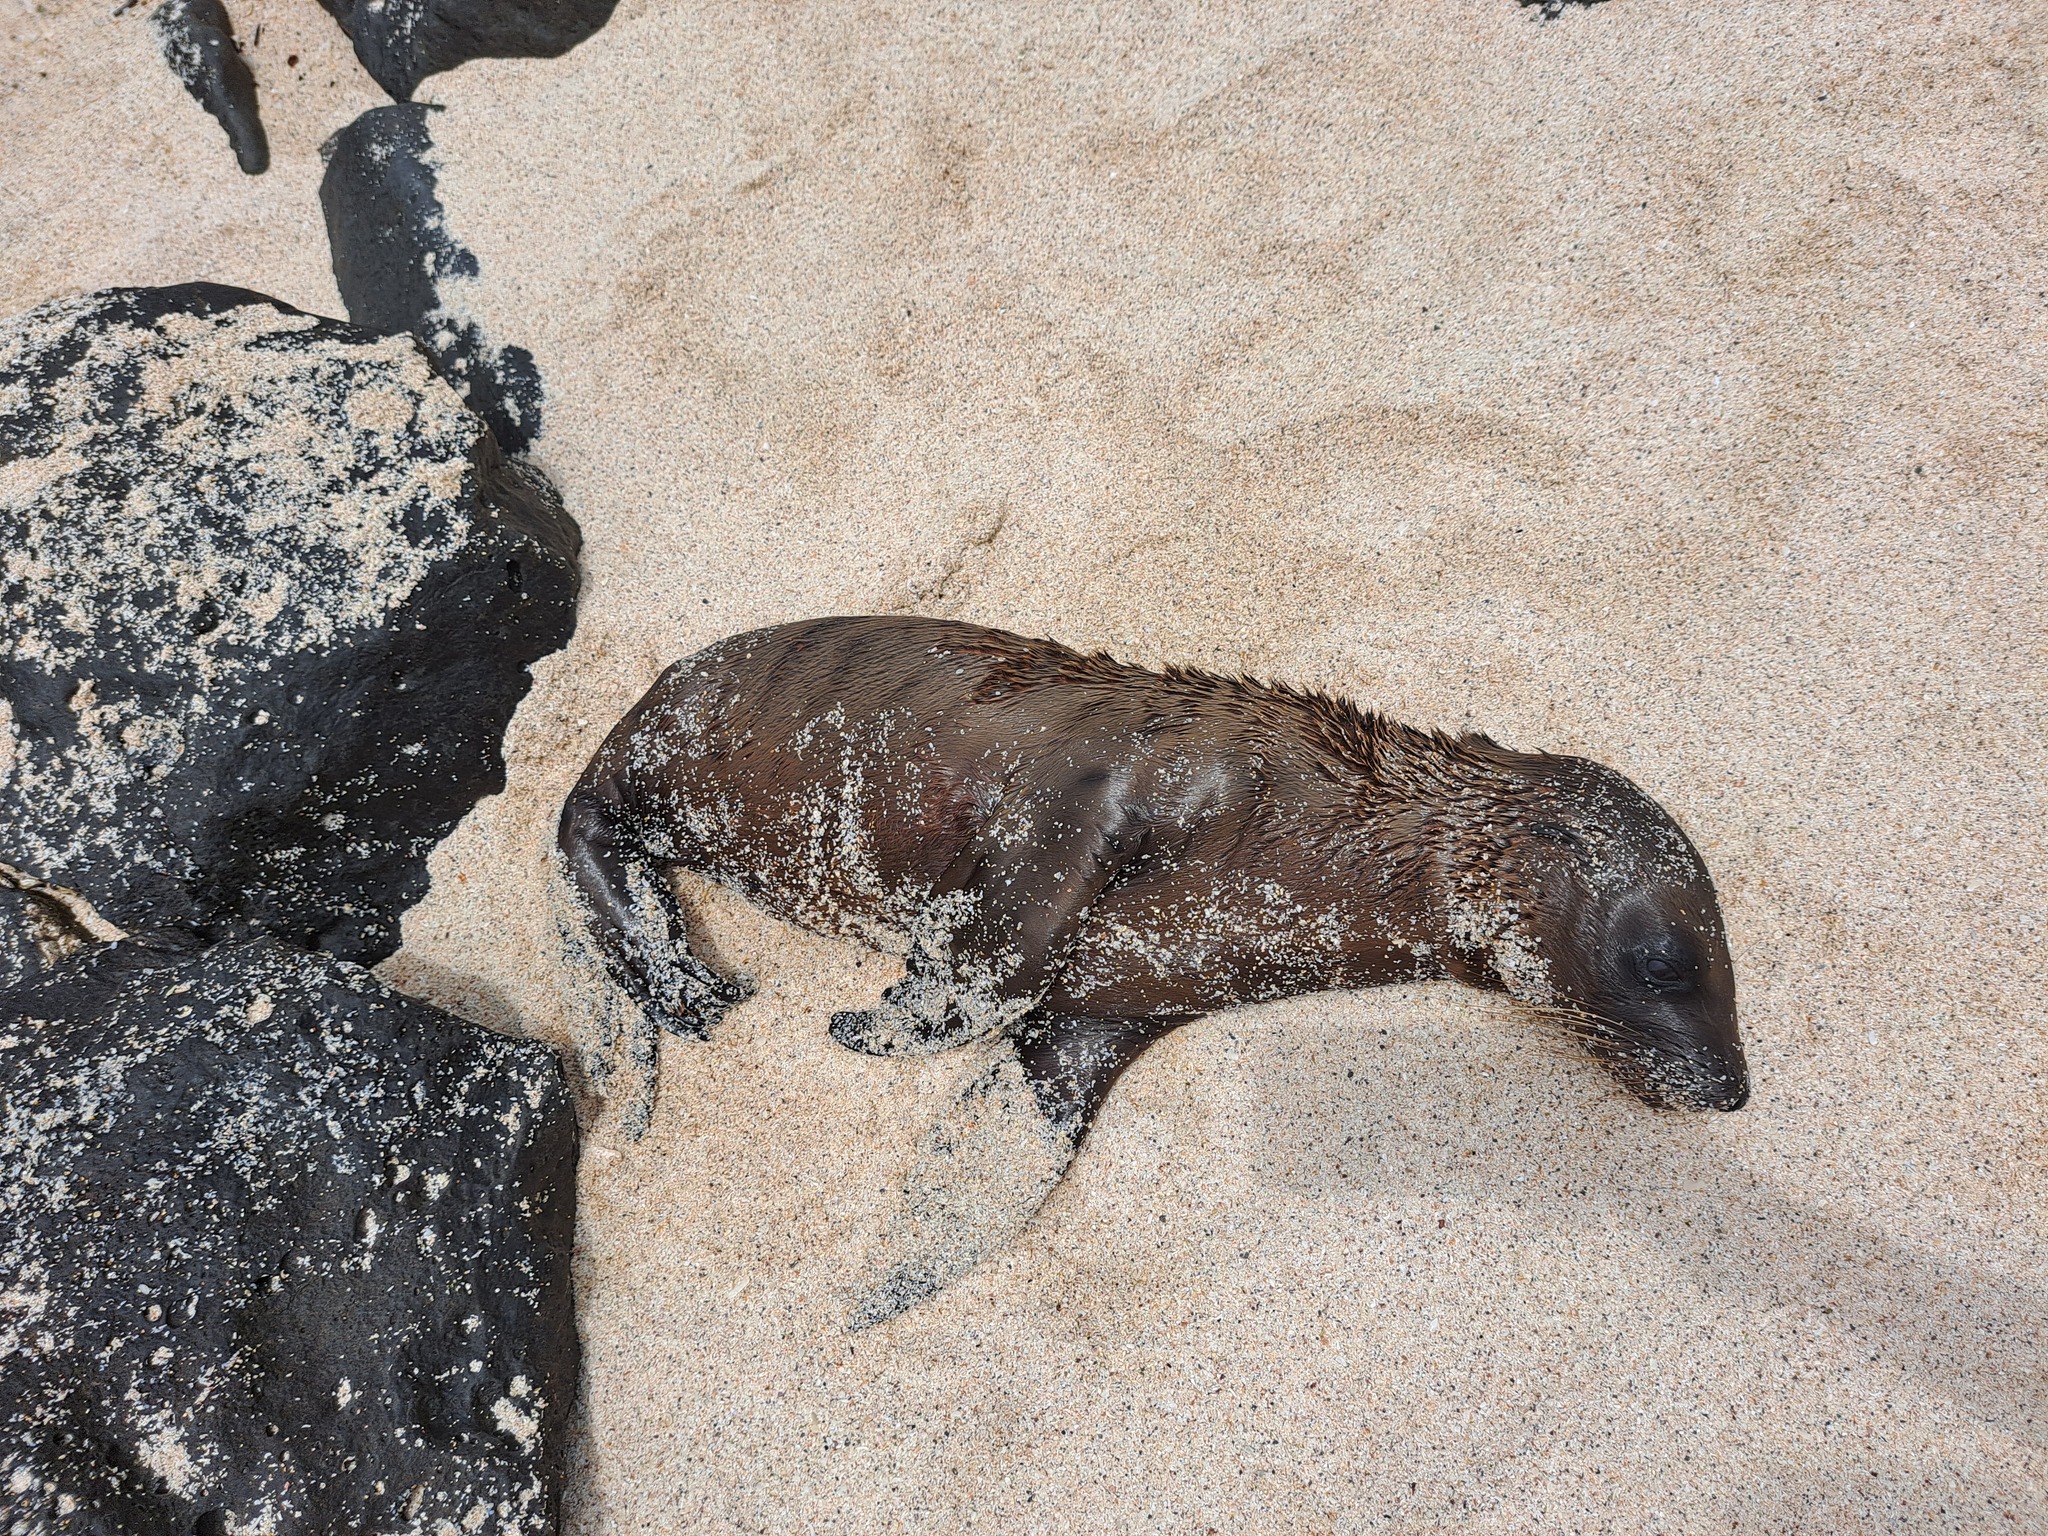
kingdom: Animalia
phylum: Chordata
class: Mammalia
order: Carnivora
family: Otariidae
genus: Zalophus
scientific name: Zalophus wollebaeki
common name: Galapagos sea lion
